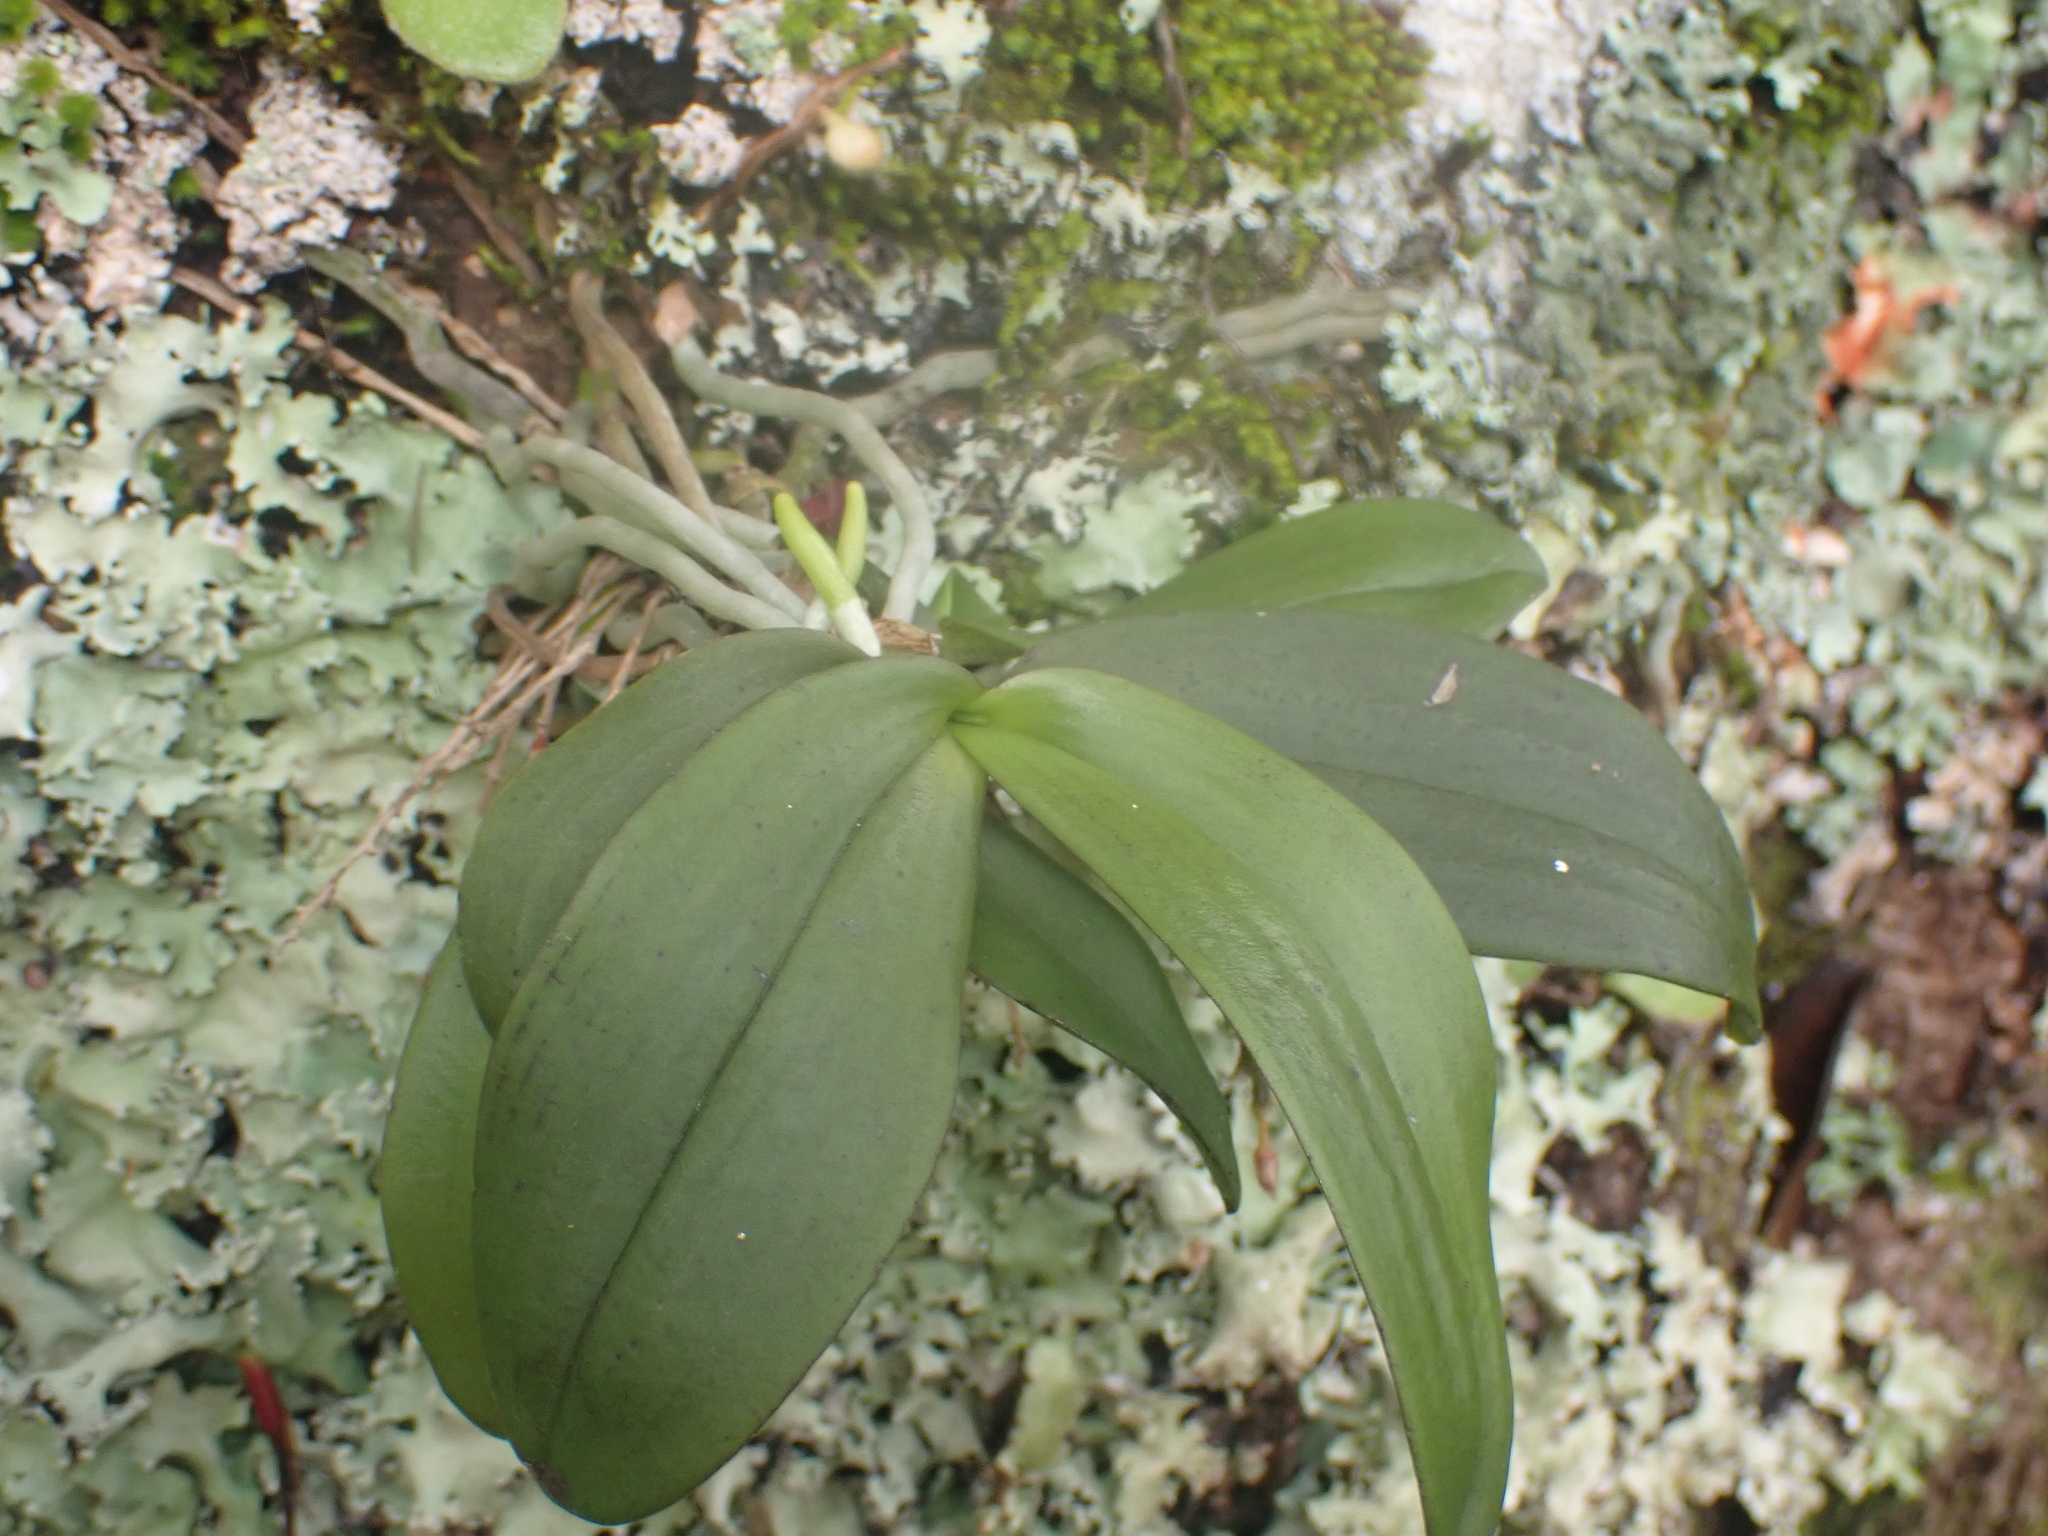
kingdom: Plantae
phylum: Tracheophyta
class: Liliopsida
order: Asparagales
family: Orchidaceae
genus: Drymoanthus
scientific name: Drymoanthus adversus
